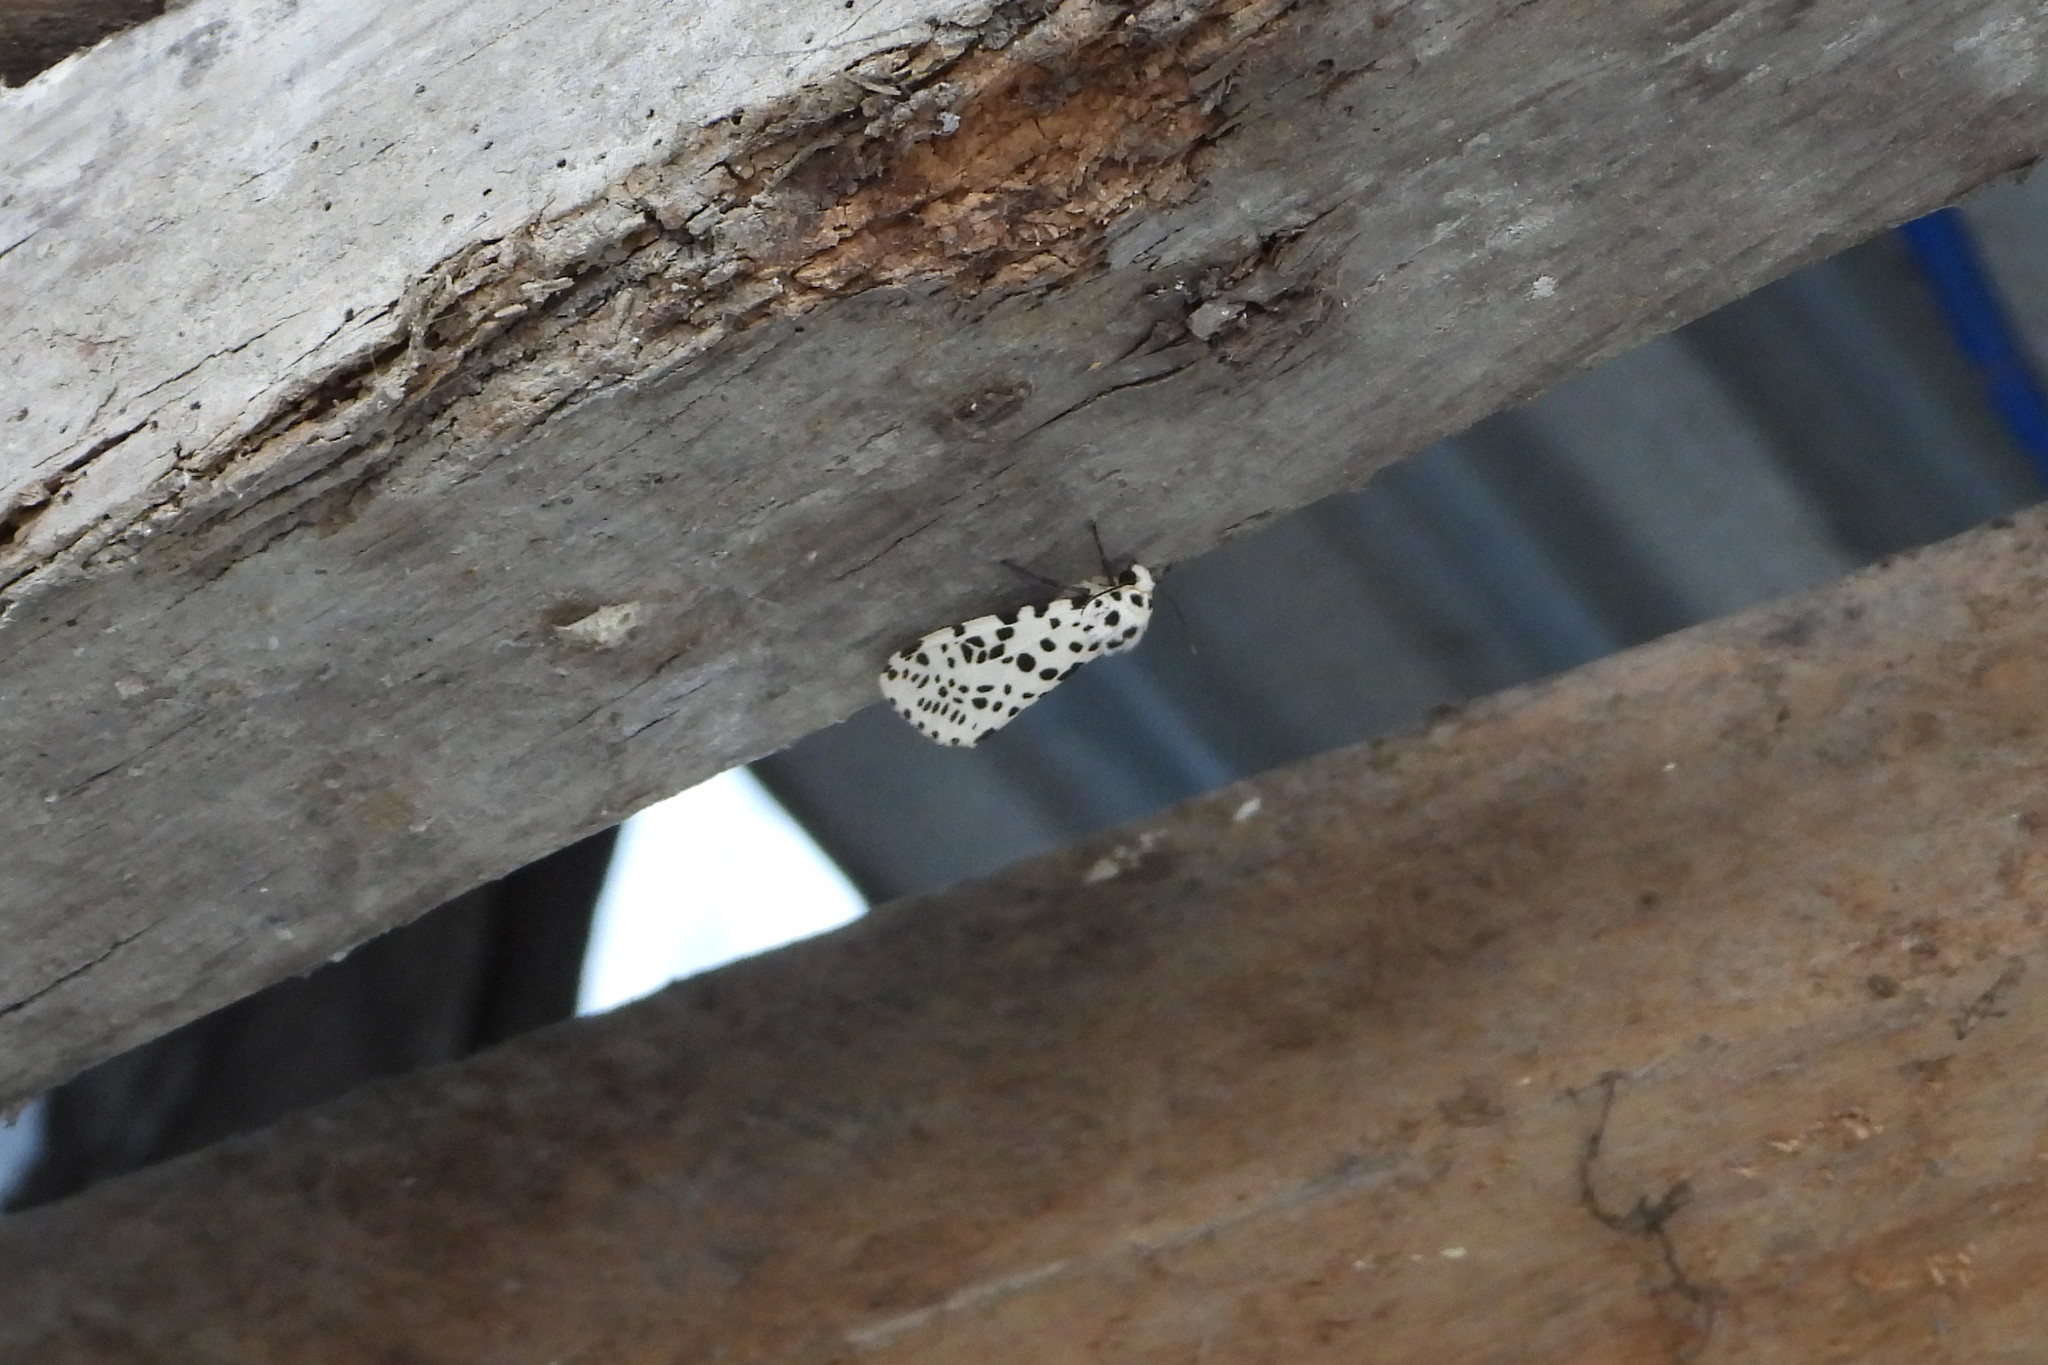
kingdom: Animalia
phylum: Arthropoda
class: Insecta
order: Lepidoptera
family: Erebidae
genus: Juxtarctia
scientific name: Juxtarctia
